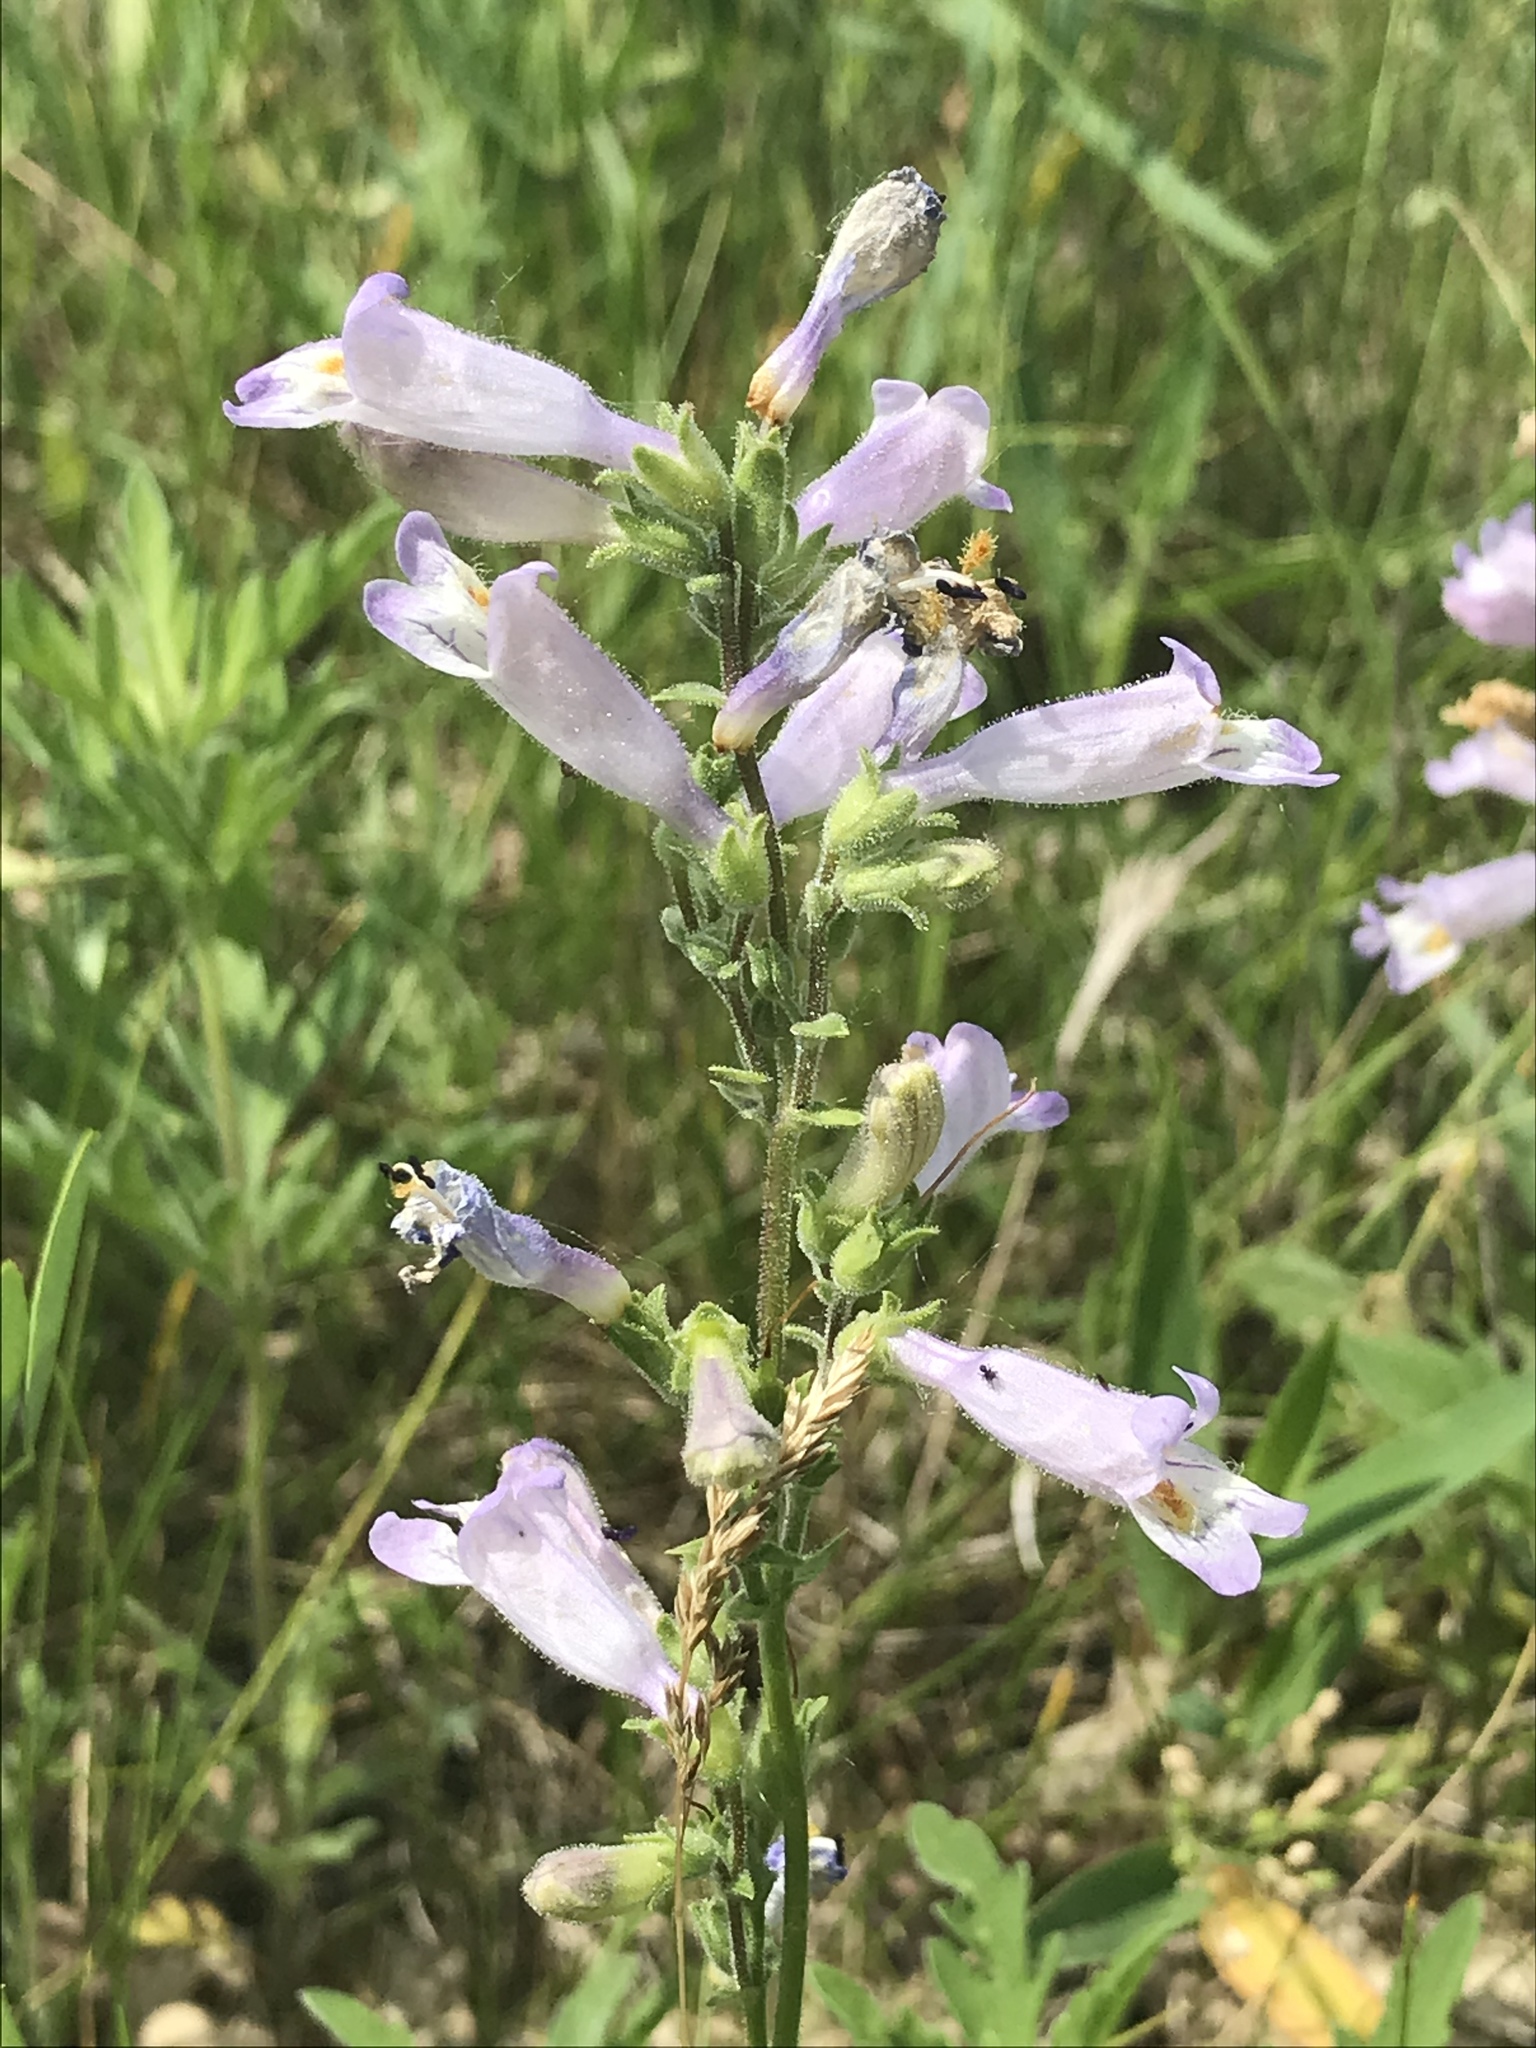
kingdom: Plantae
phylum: Tracheophyta
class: Magnoliopsida
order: Lamiales
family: Plantaginaceae
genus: Penstemon
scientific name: Penstemon gracilis
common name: Slender beardtongue
